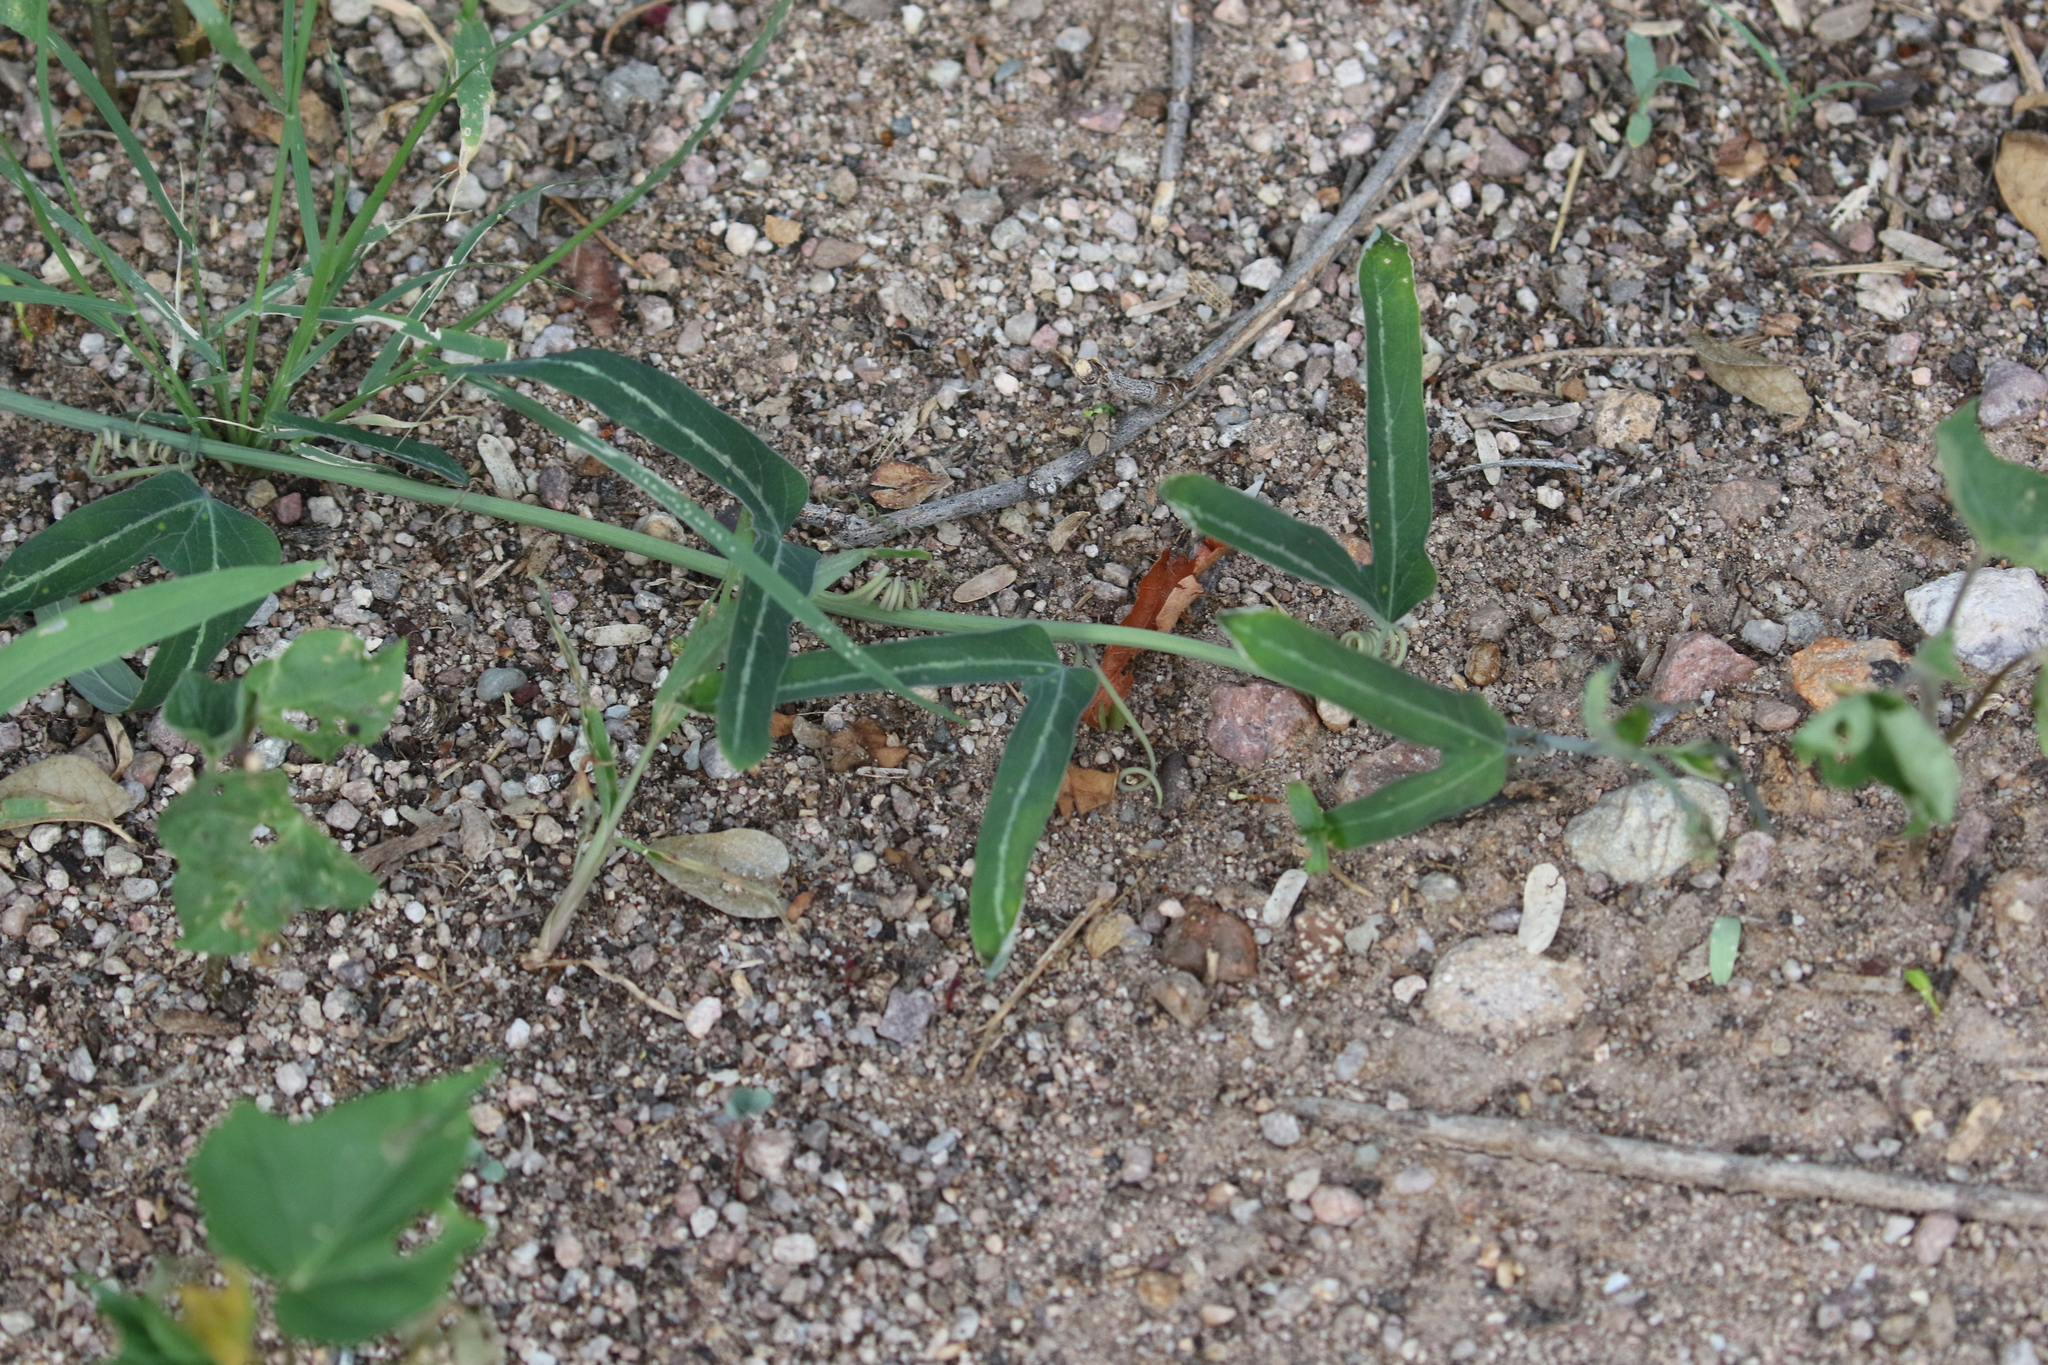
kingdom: Plantae
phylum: Tracheophyta
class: Magnoliopsida
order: Malpighiales
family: Passifloraceae
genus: Passiflora
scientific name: Passiflora mexicana
